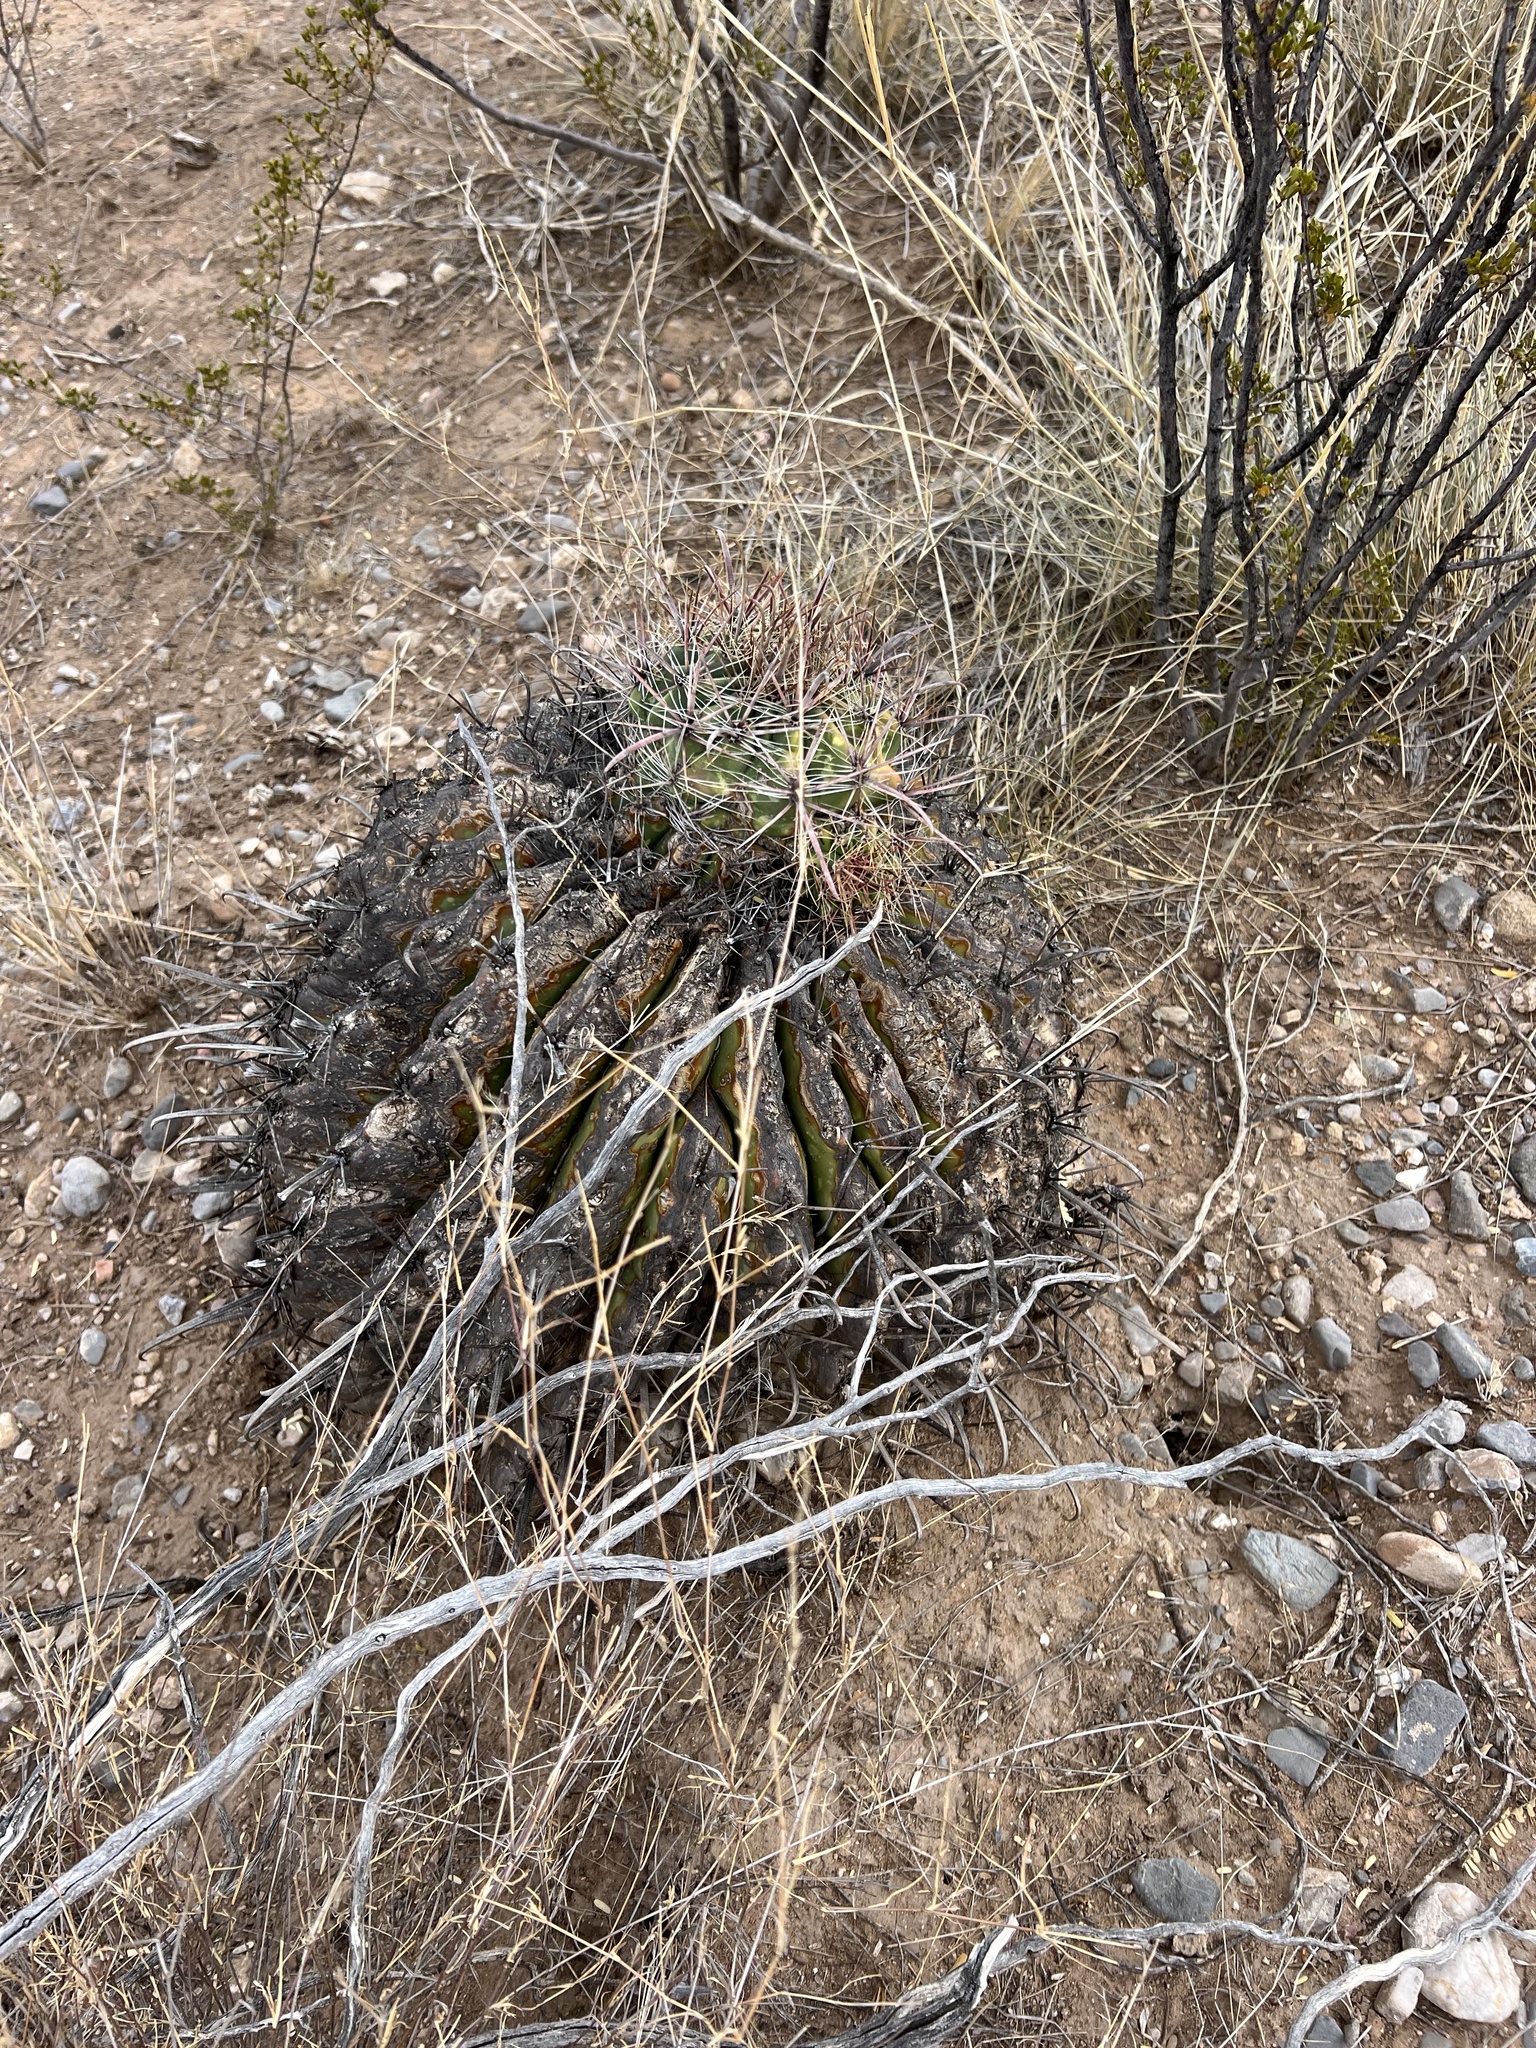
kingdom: Plantae
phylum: Tracheophyta
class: Magnoliopsida
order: Caryophyllales
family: Cactaceae
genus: Ferocactus
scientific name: Ferocactus wislizeni
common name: Candy barrel cactus
